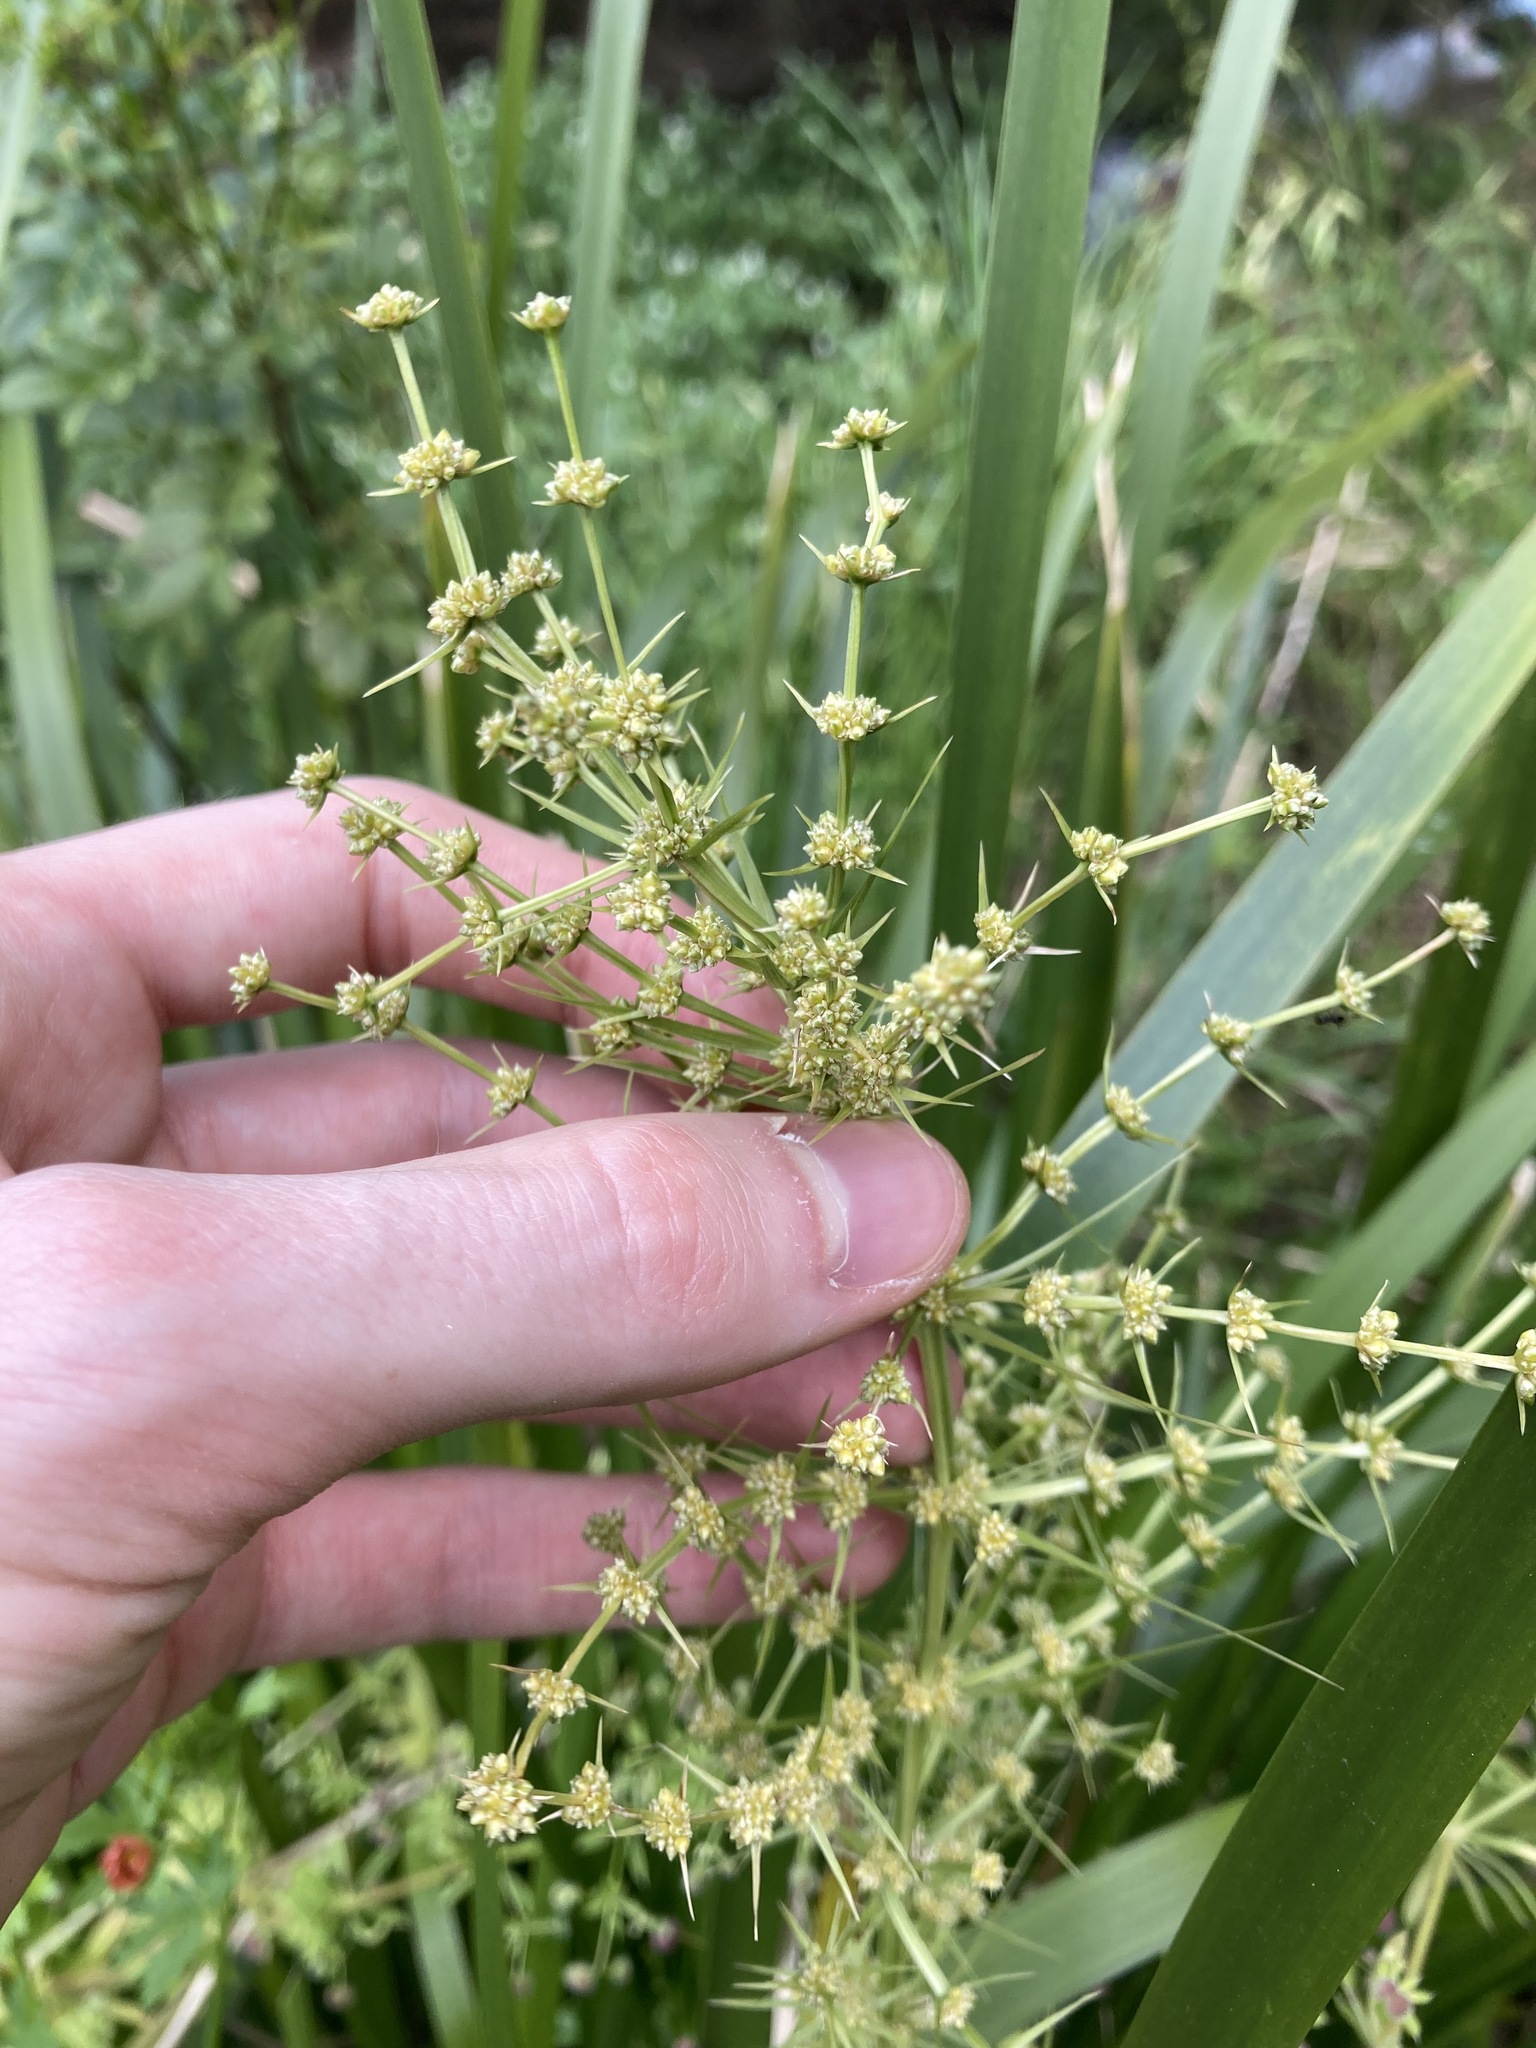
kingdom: Plantae
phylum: Tracheophyta
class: Liliopsida
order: Asparagales
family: Asparagaceae
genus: Lomandra
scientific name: Lomandra hystrix
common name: Creek mat-rush
